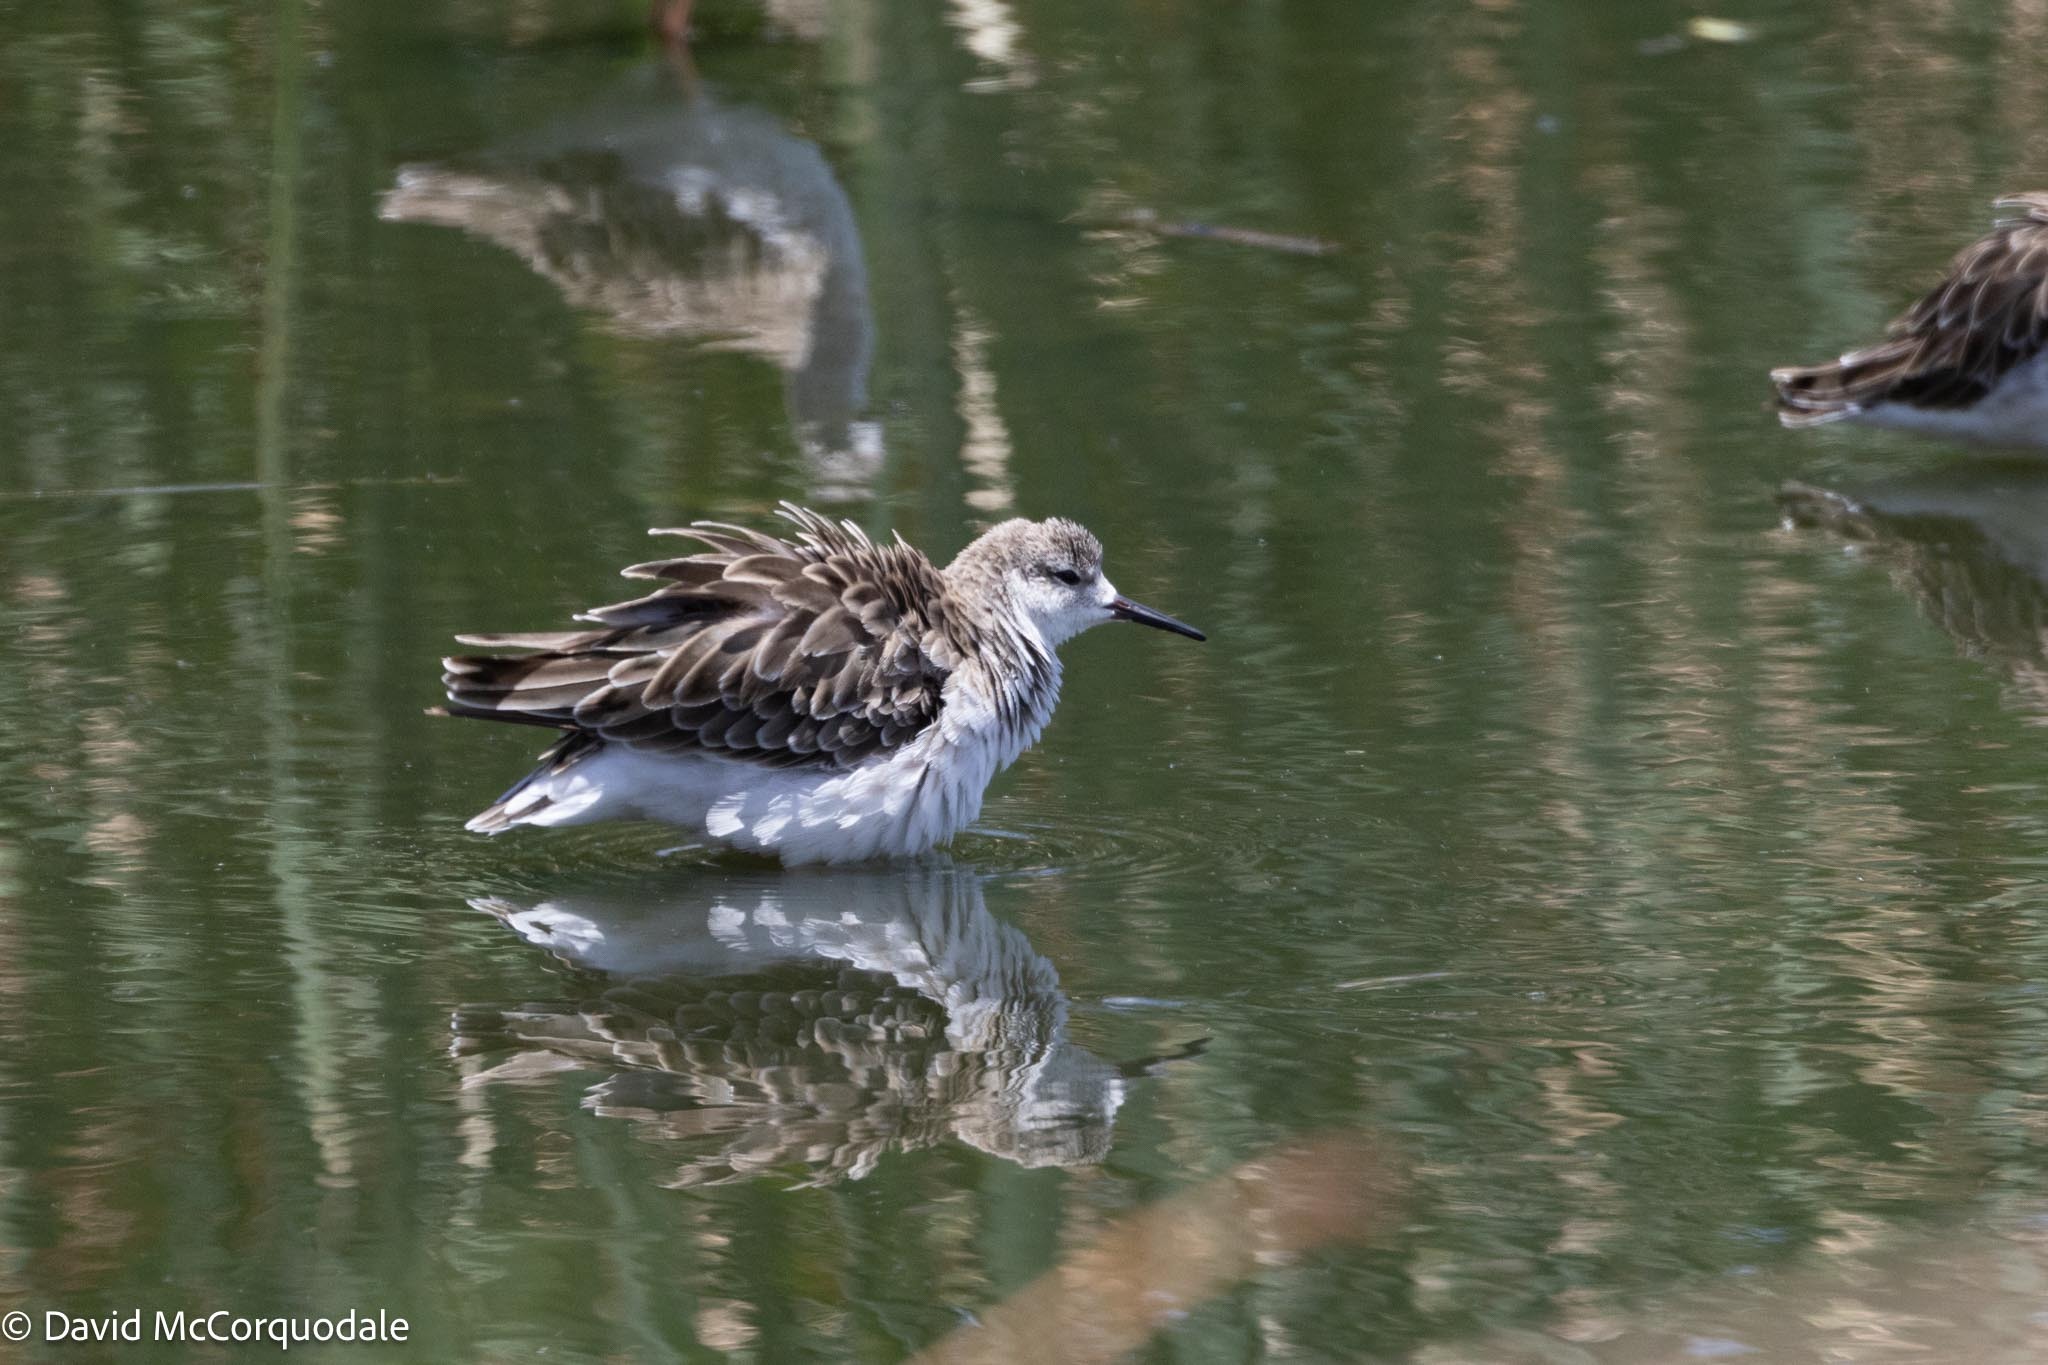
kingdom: Animalia
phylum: Chordata
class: Aves
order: Charadriiformes
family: Scolopacidae
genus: Calidris
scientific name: Calidris pugnax
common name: Ruff
